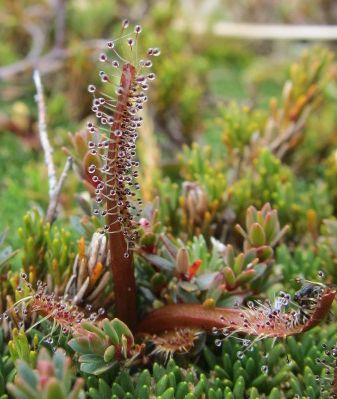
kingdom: Plantae
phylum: Tracheophyta
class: Magnoliopsida
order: Caryophyllales
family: Droseraceae
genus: Drosera
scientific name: Drosera arcturi
